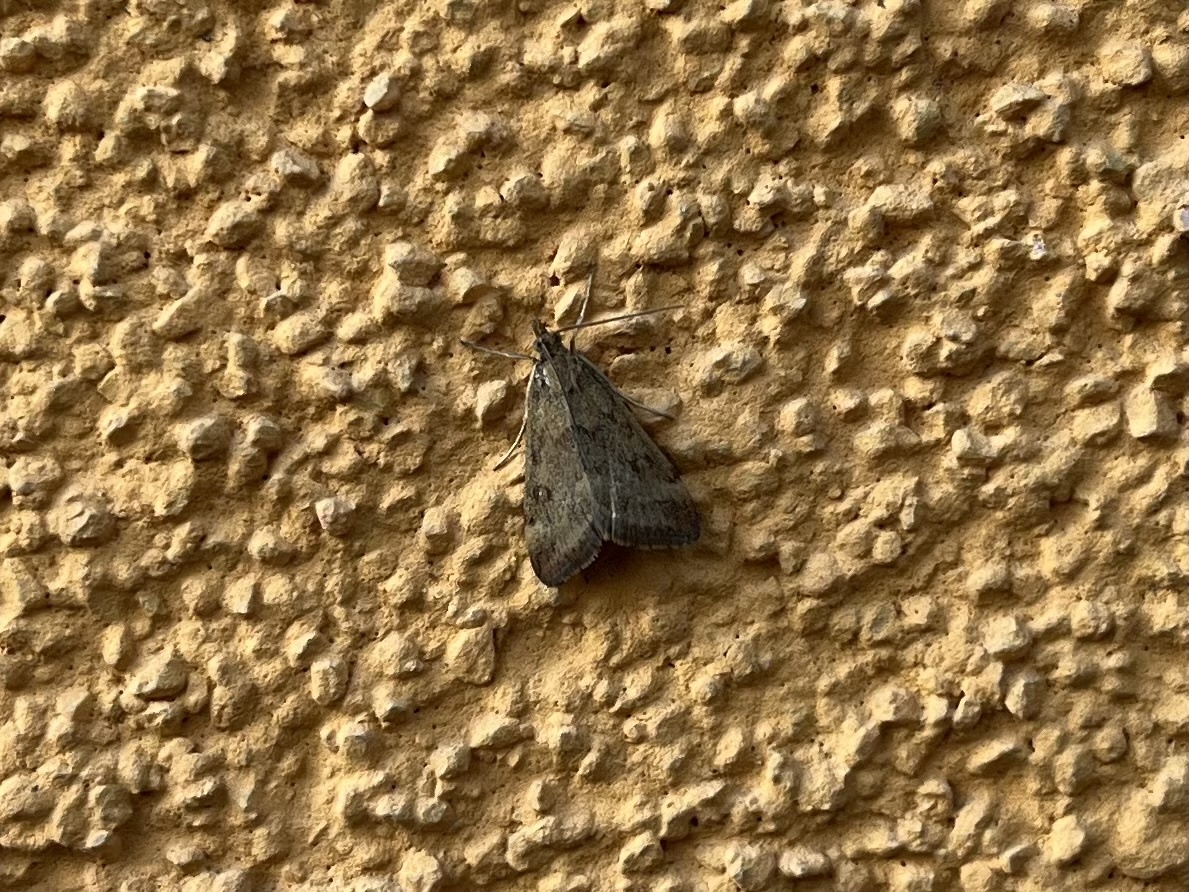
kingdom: Animalia
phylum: Arthropoda
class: Insecta
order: Lepidoptera
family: Crambidae
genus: Pyrausta
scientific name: Pyrausta despicata
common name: Straw-barred pearl
